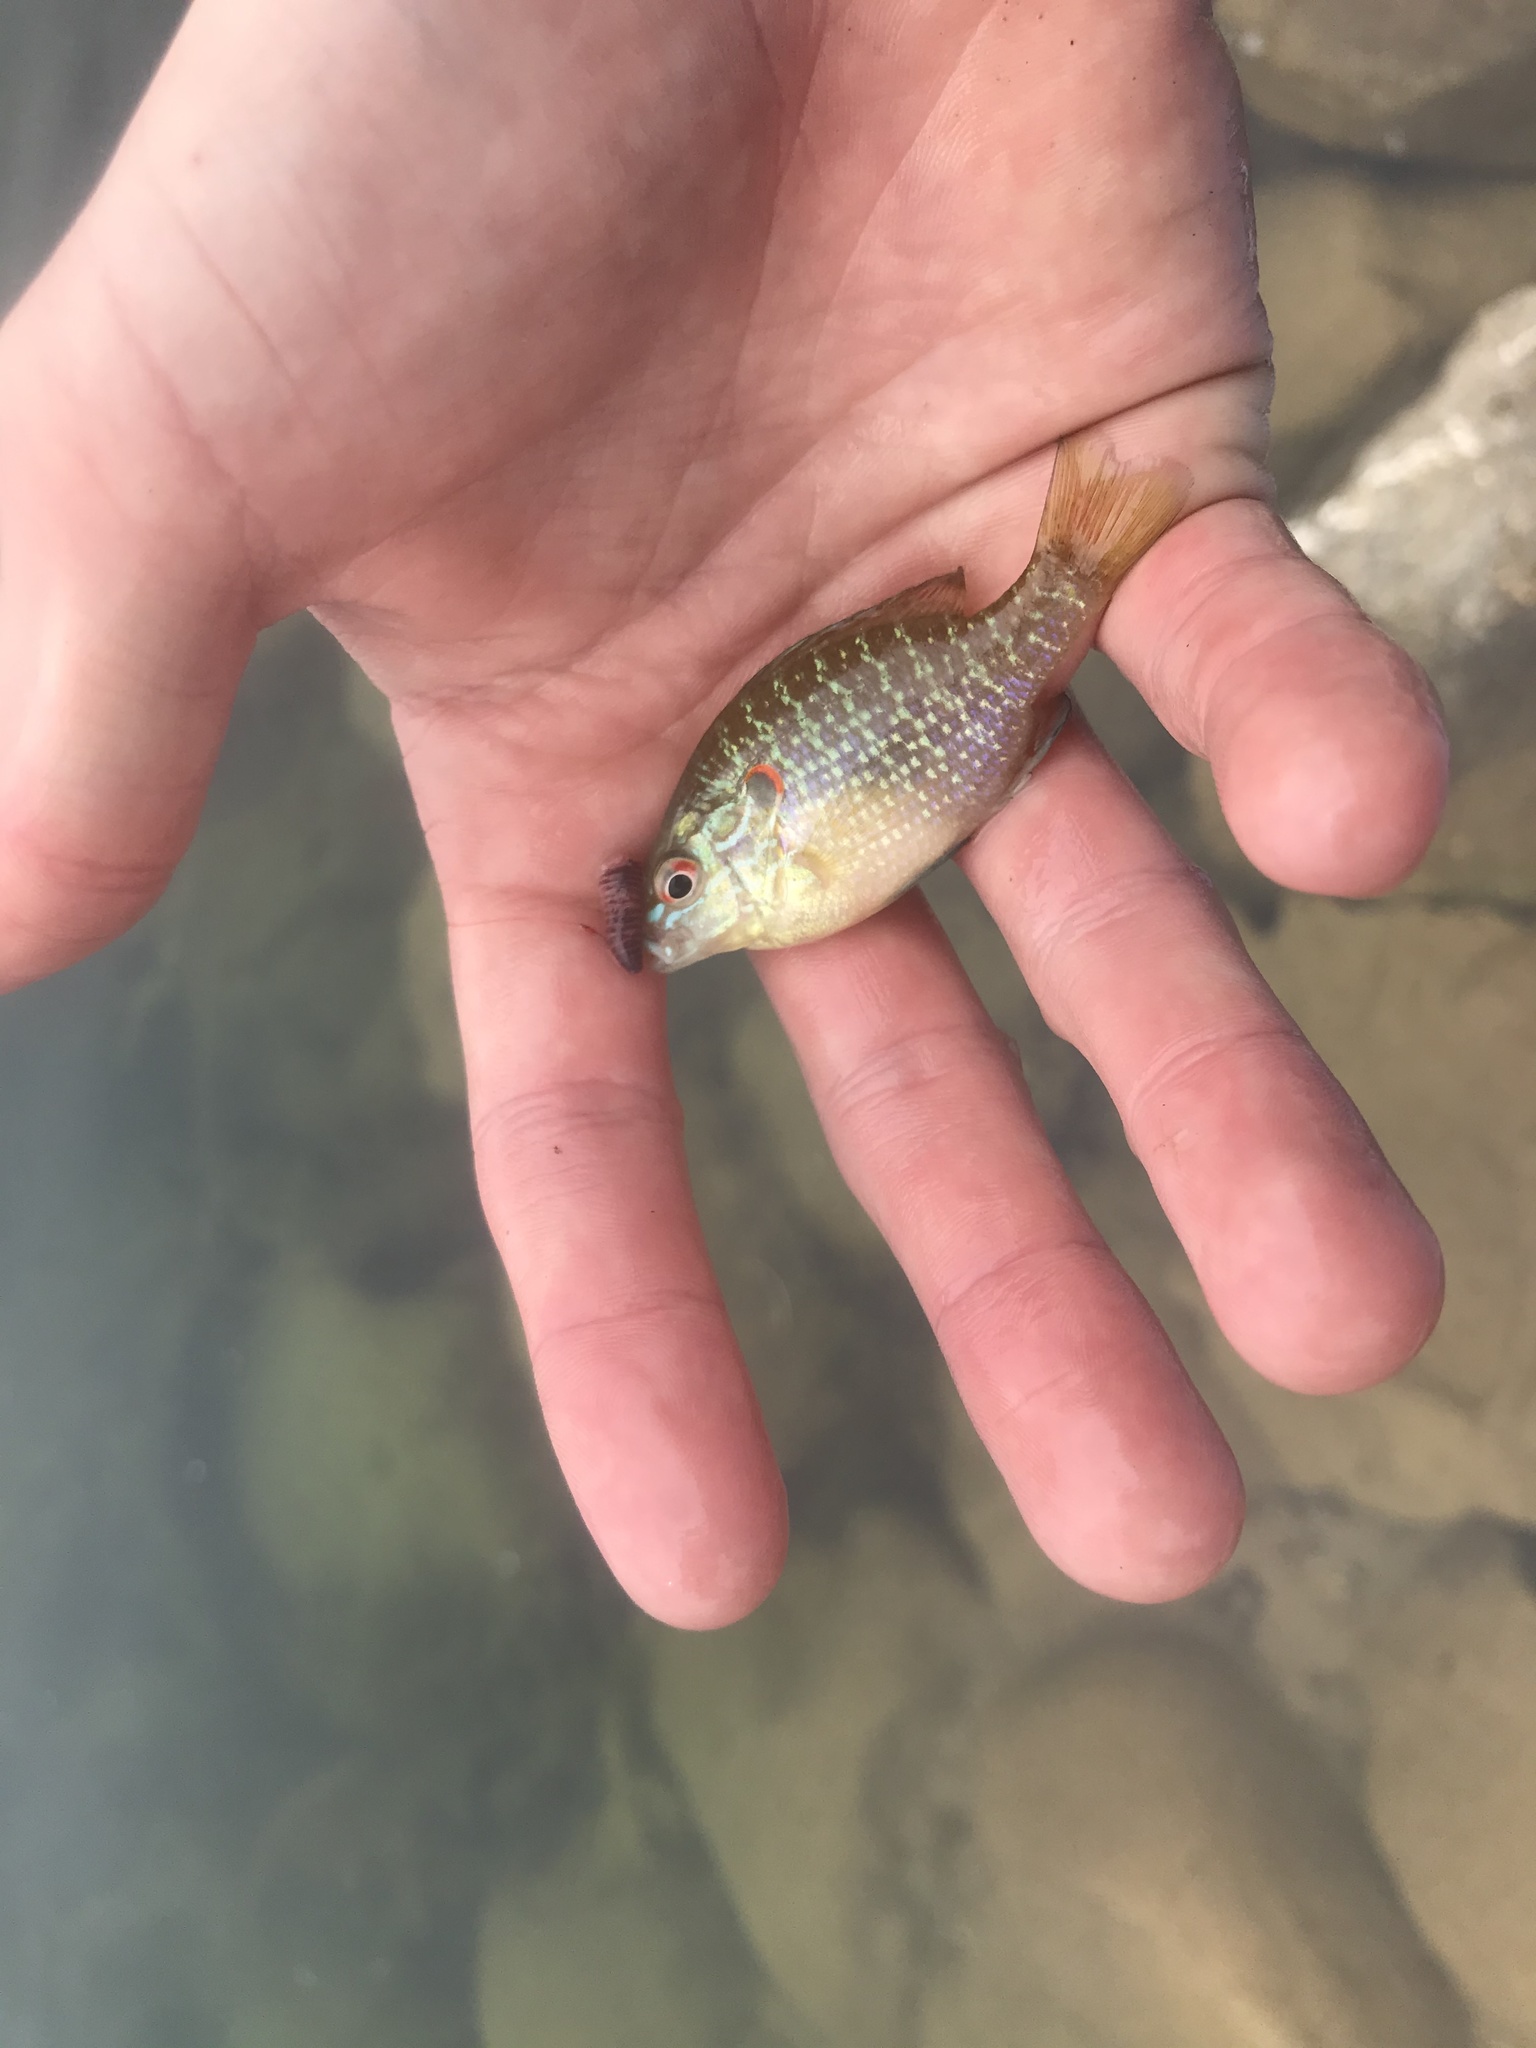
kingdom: Animalia
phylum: Chordata
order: Perciformes
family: Centrarchidae
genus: Lepomis
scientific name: Lepomis peltastes
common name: Northern sunfish
